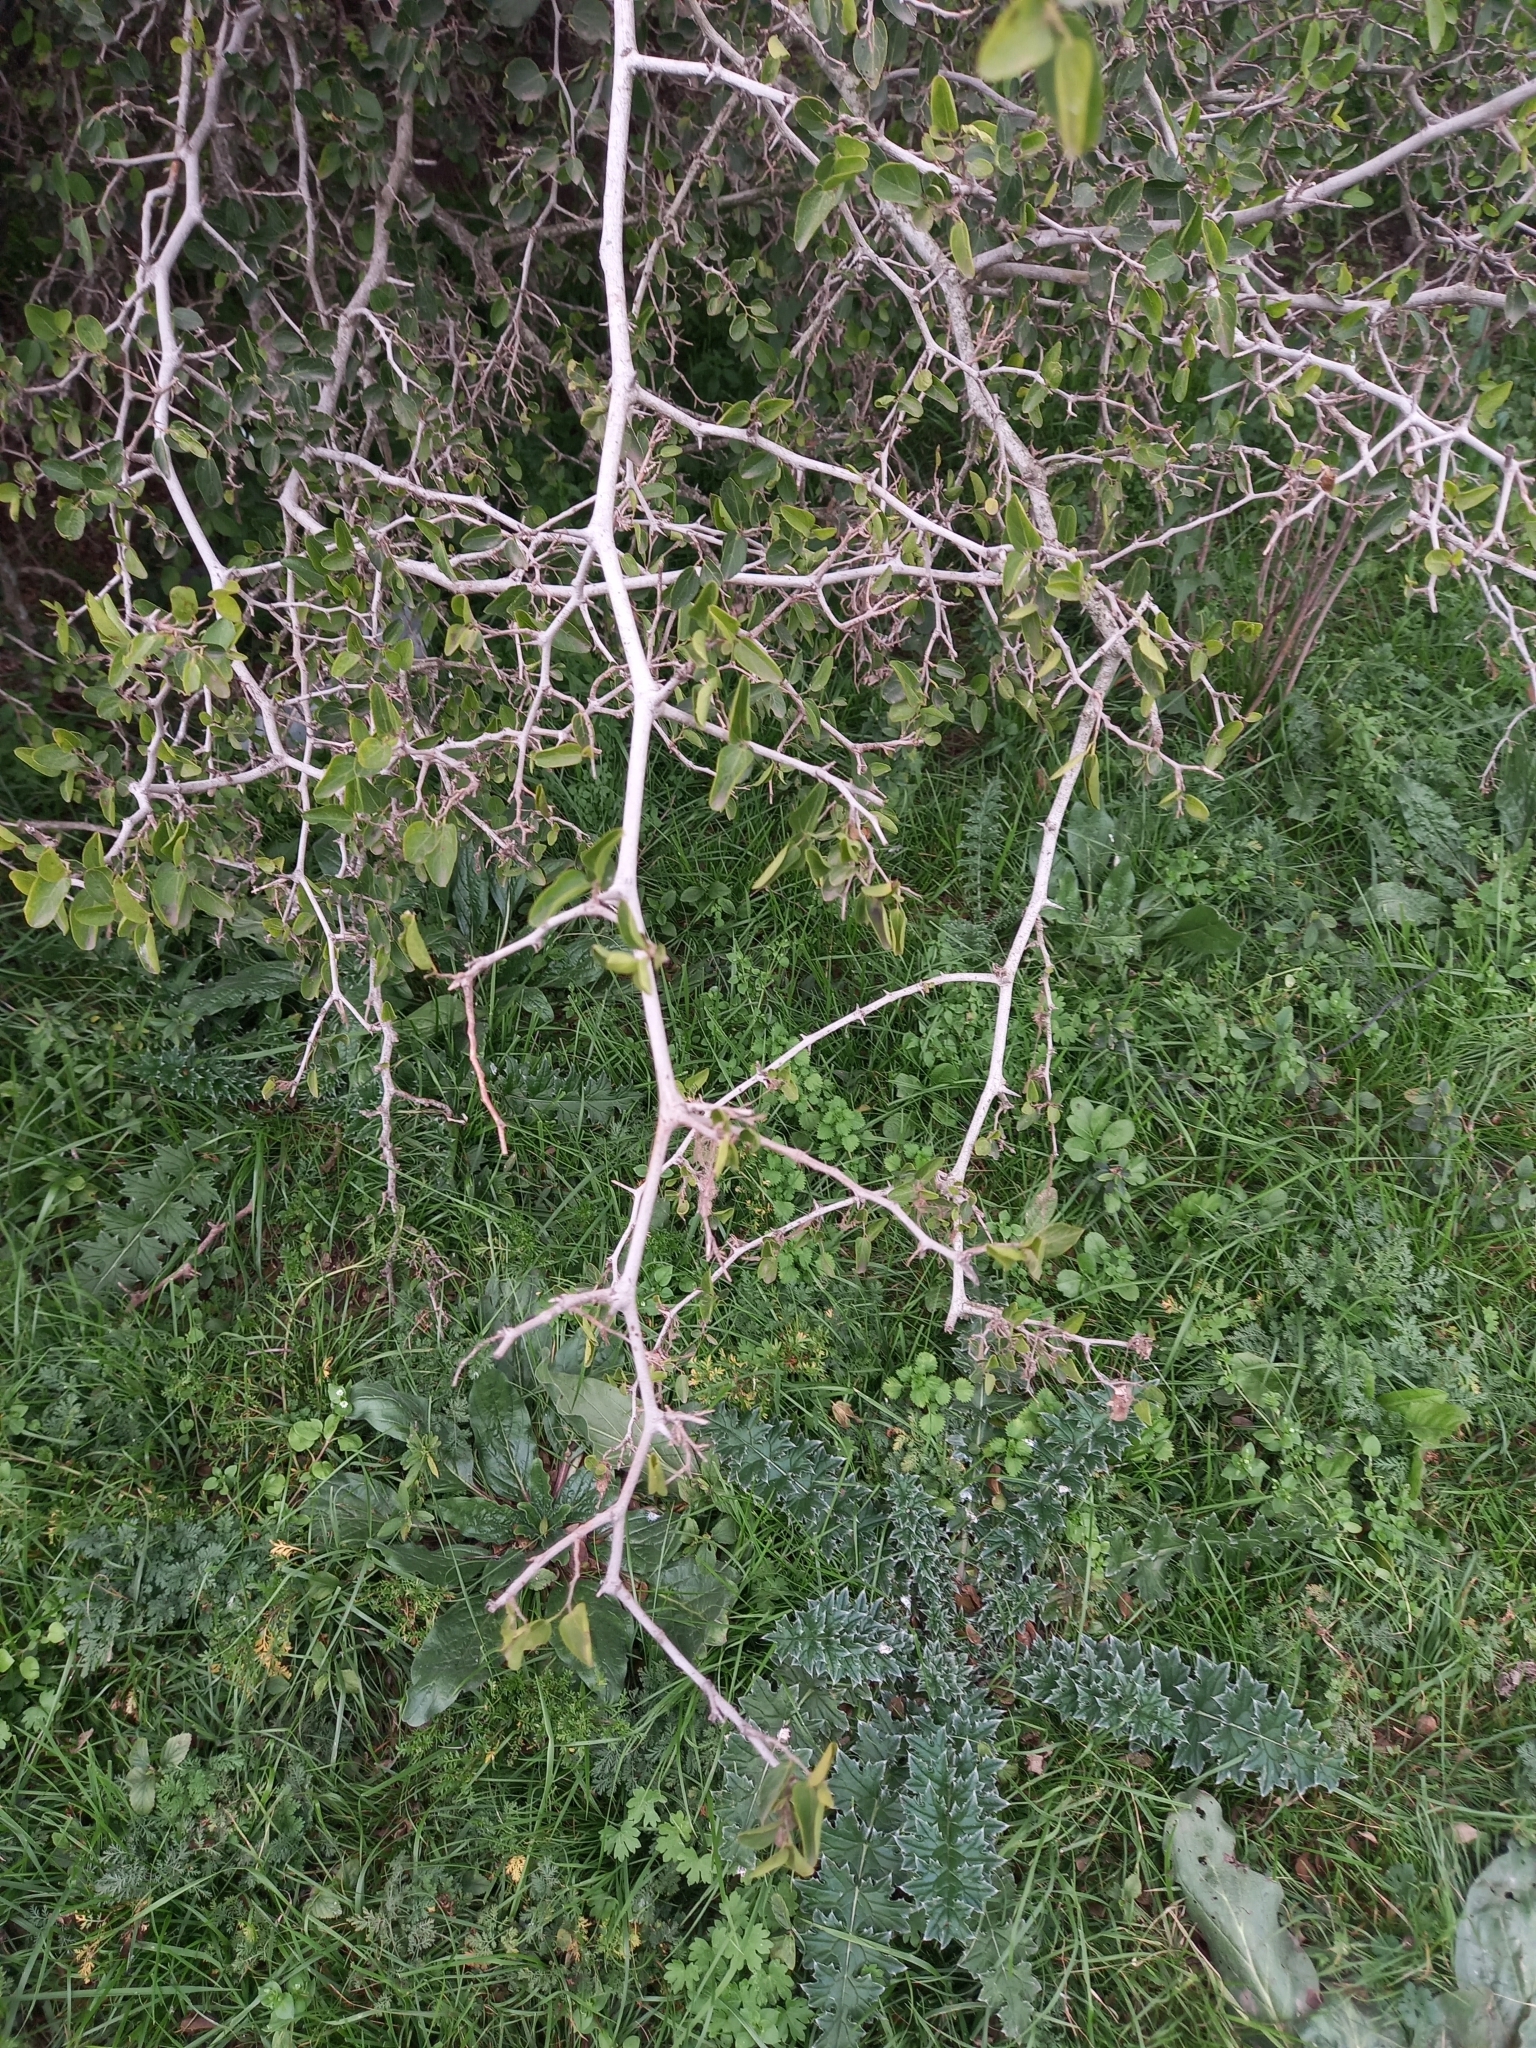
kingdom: Plantae
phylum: Tracheophyta
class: Magnoliopsida
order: Rosales
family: Cannabaceae
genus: Celtis
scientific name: Celtis tala
